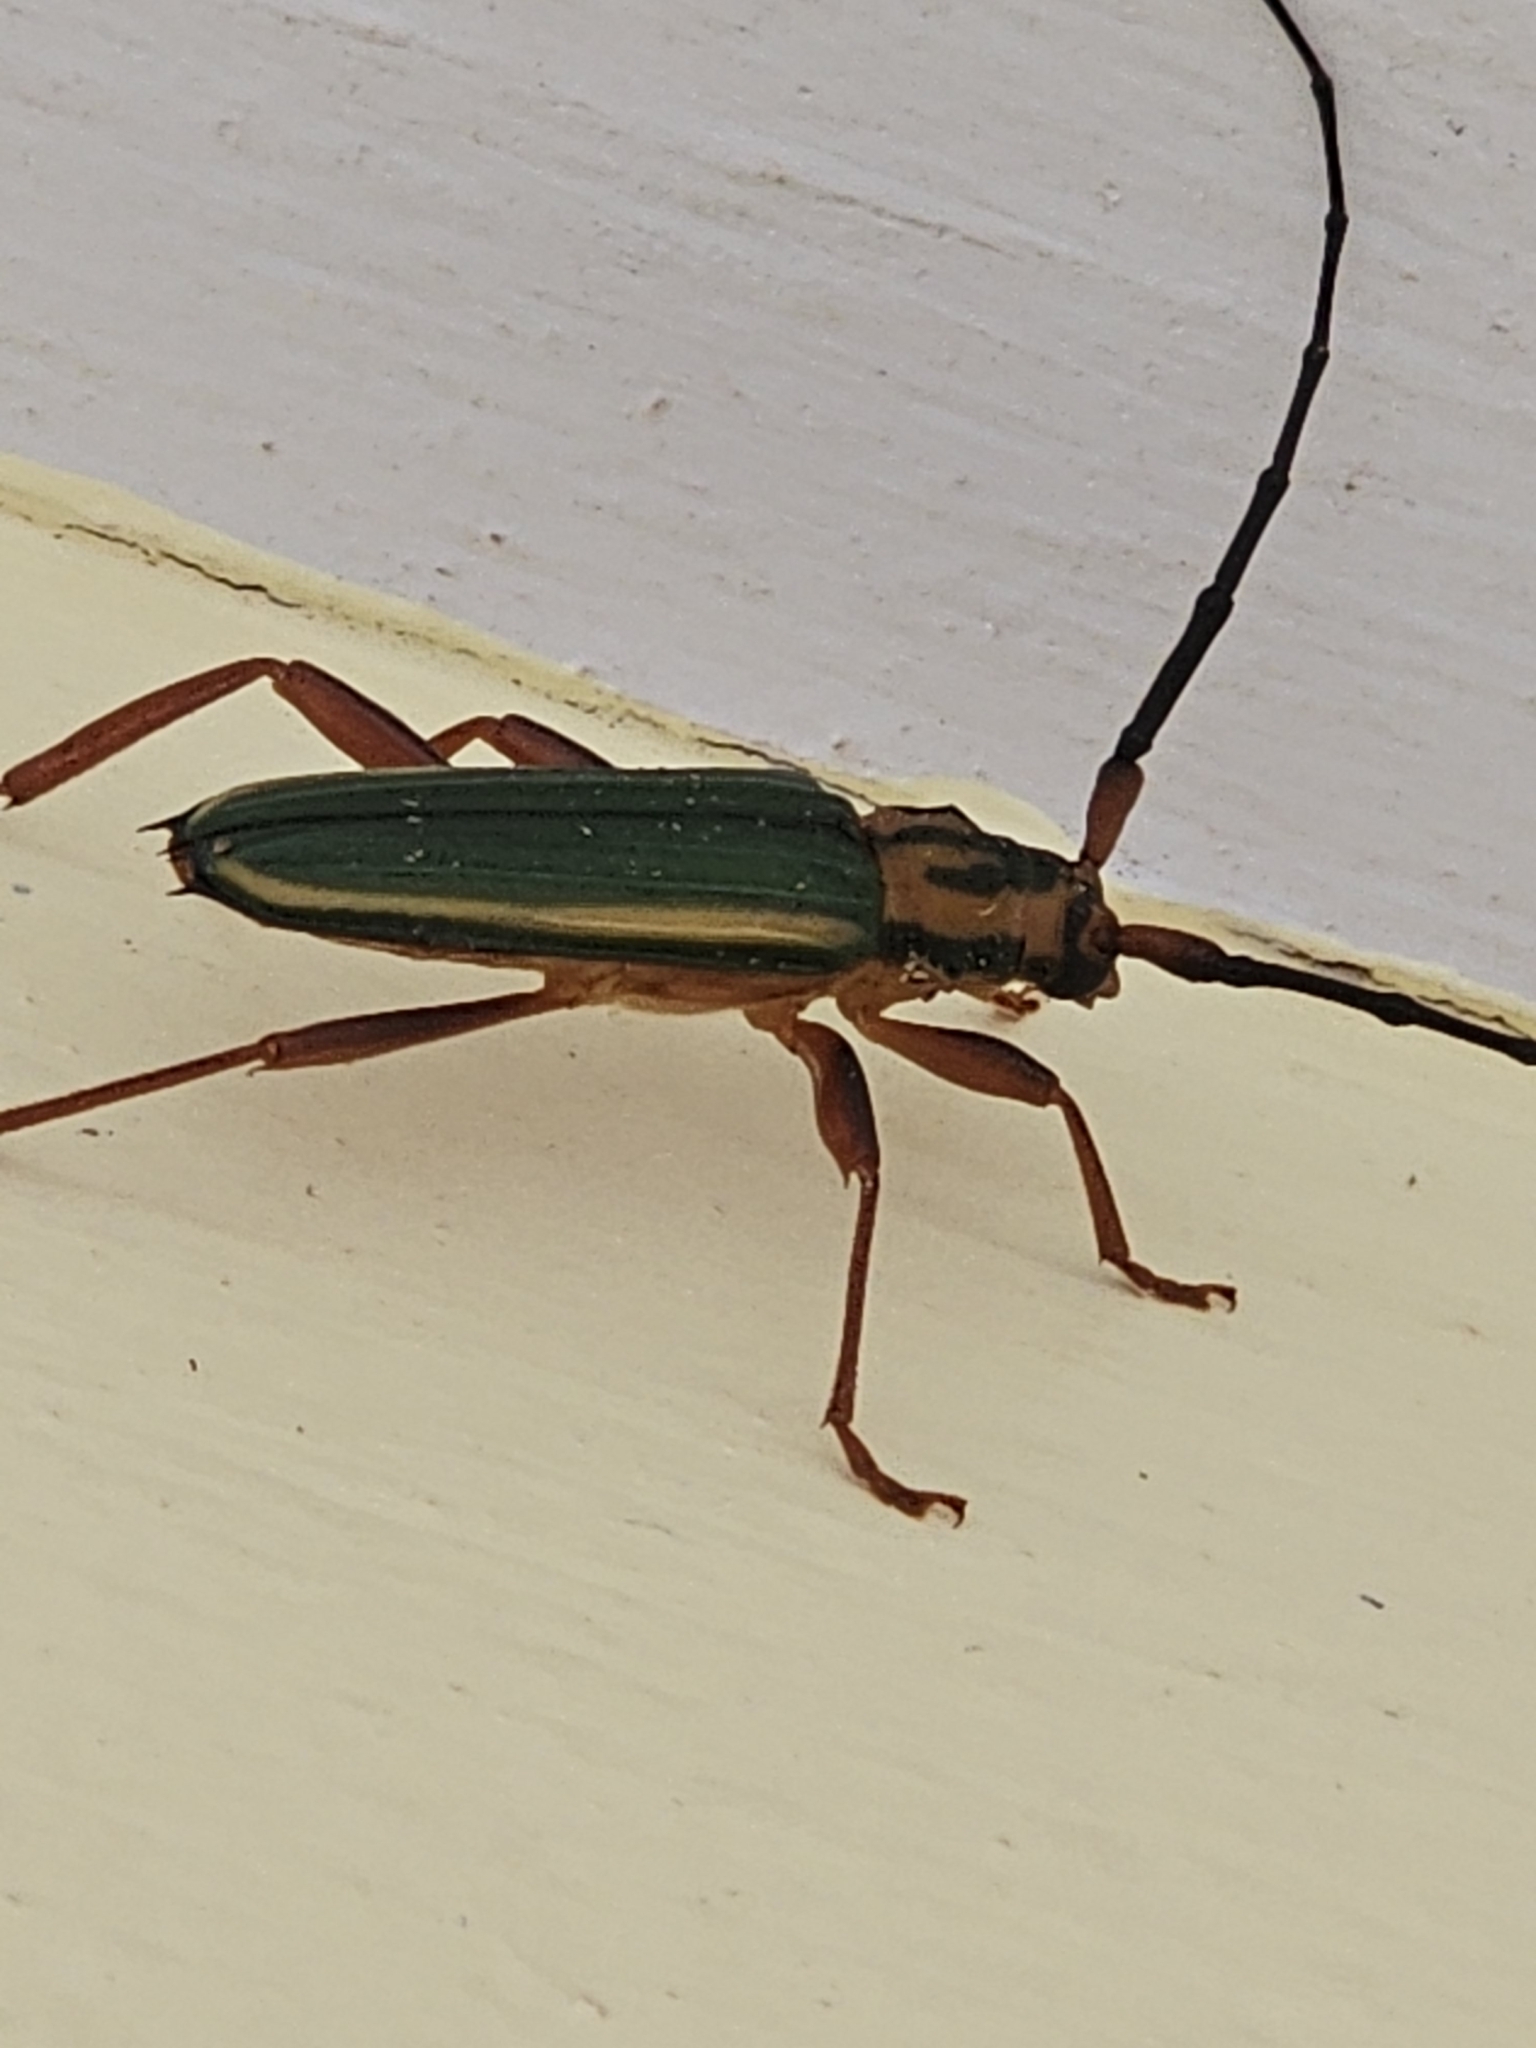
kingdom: Animalia
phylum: Arthropoda
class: Insecta
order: Coleoptera
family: Cerambycidae
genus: Chlorida
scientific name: Chlorida festiva
